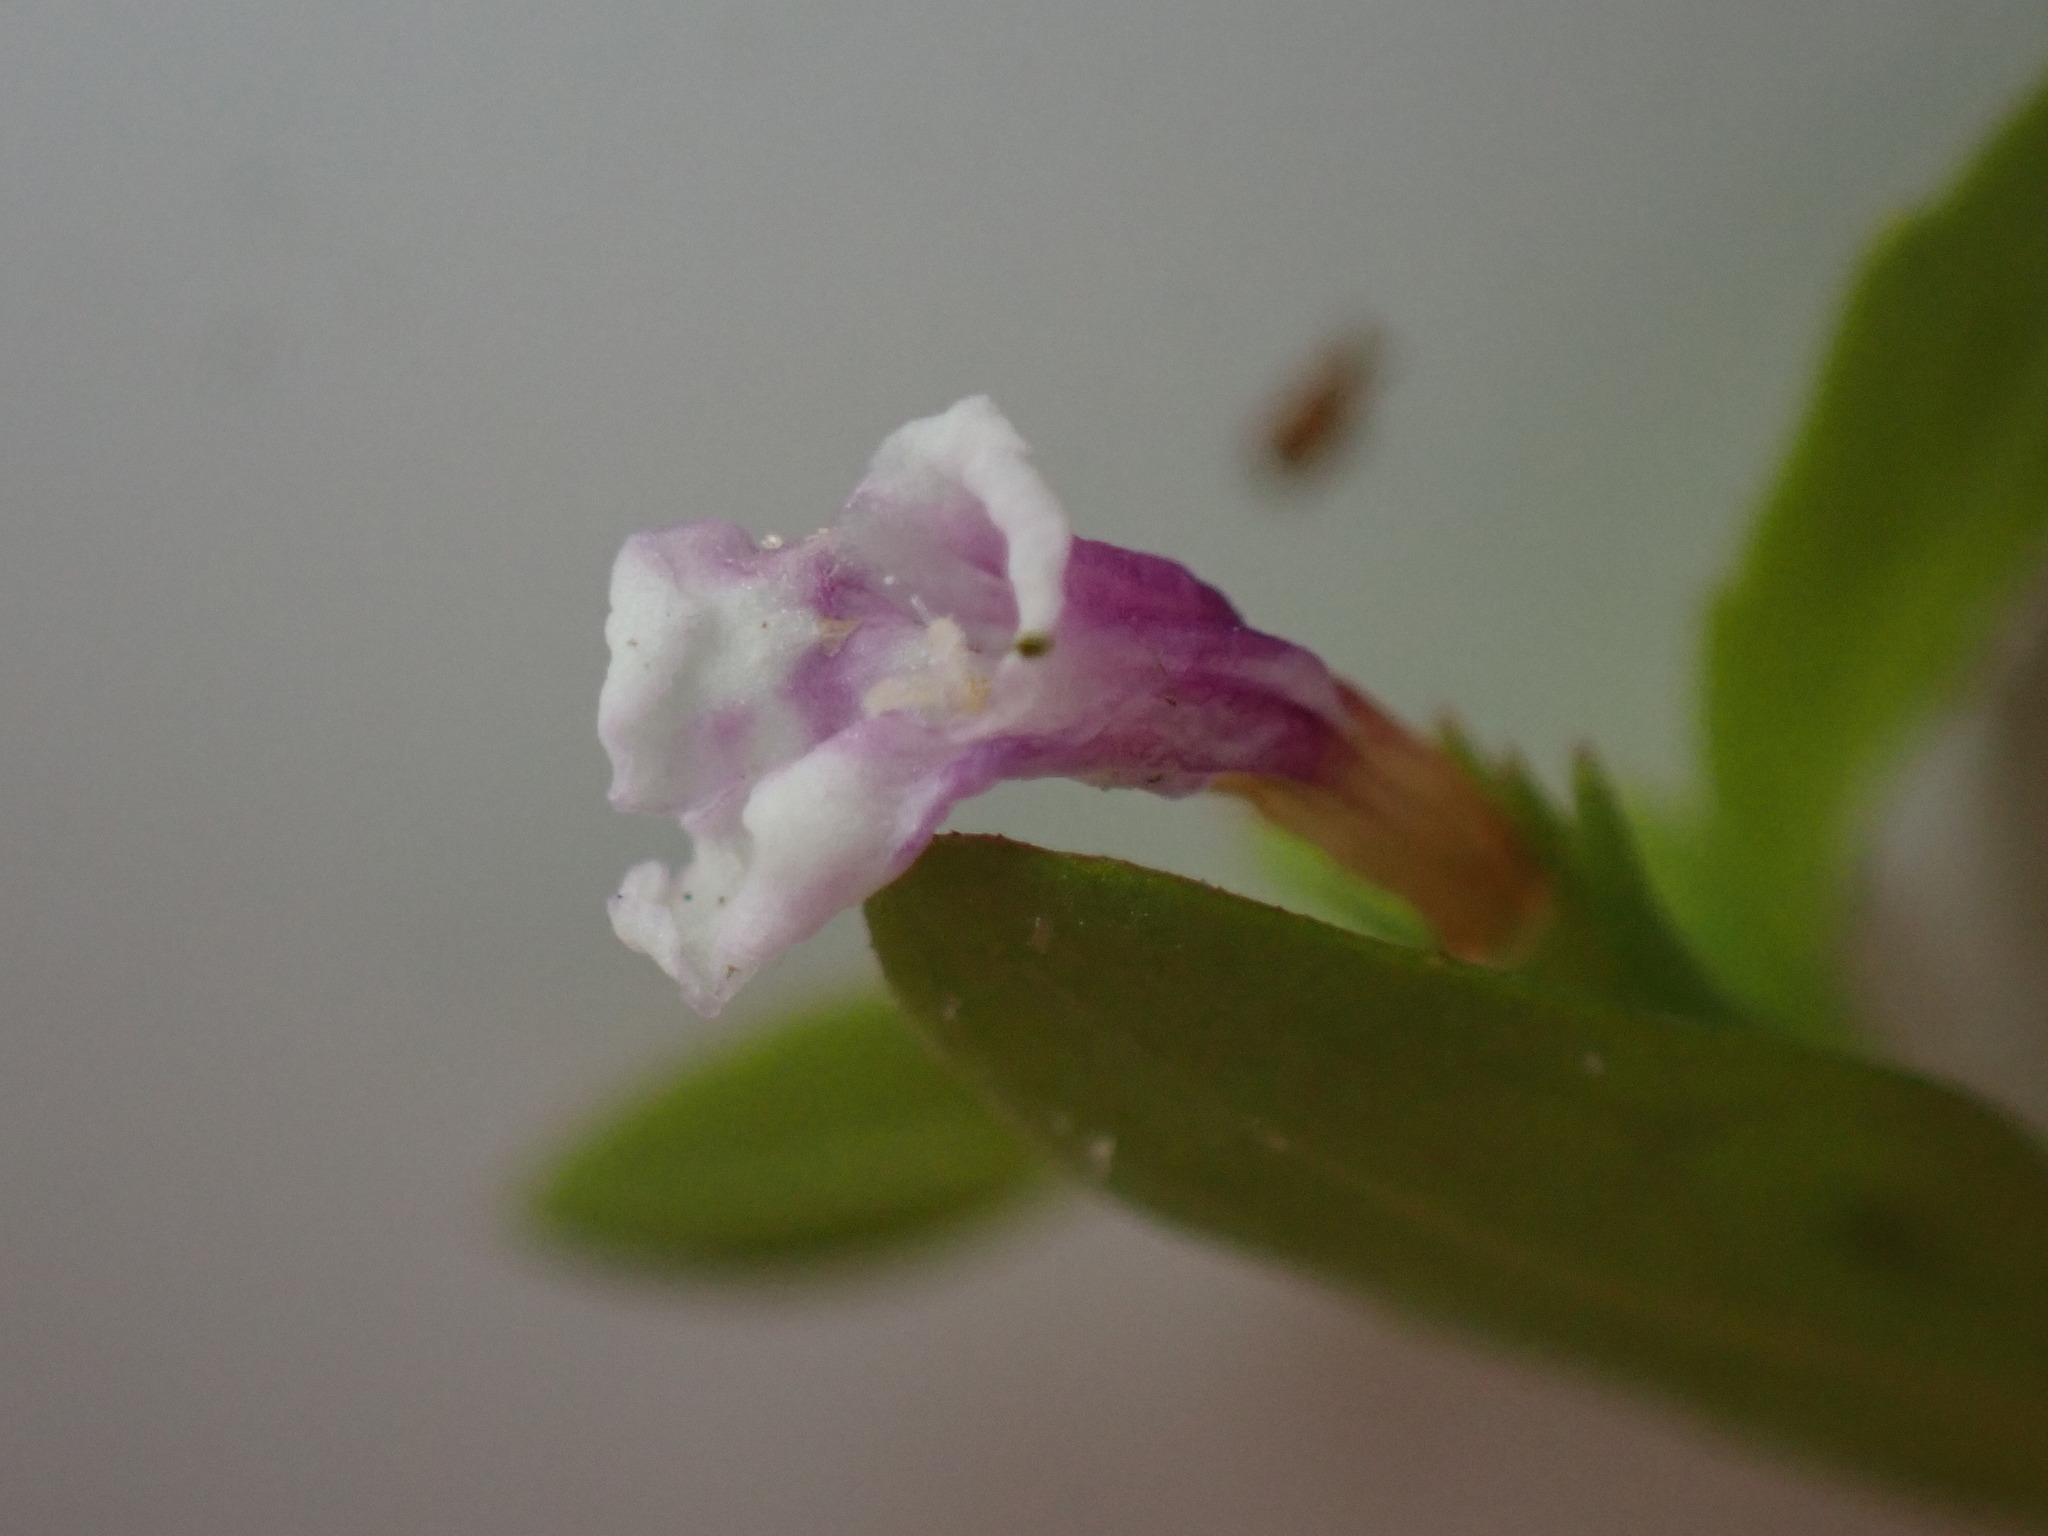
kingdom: Plantae
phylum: Tracheophyta
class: Magnoliopsida
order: Lamiales
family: Linderniaceae
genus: Lindernia
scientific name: Lindernia dubia
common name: Annual false pimpernel
